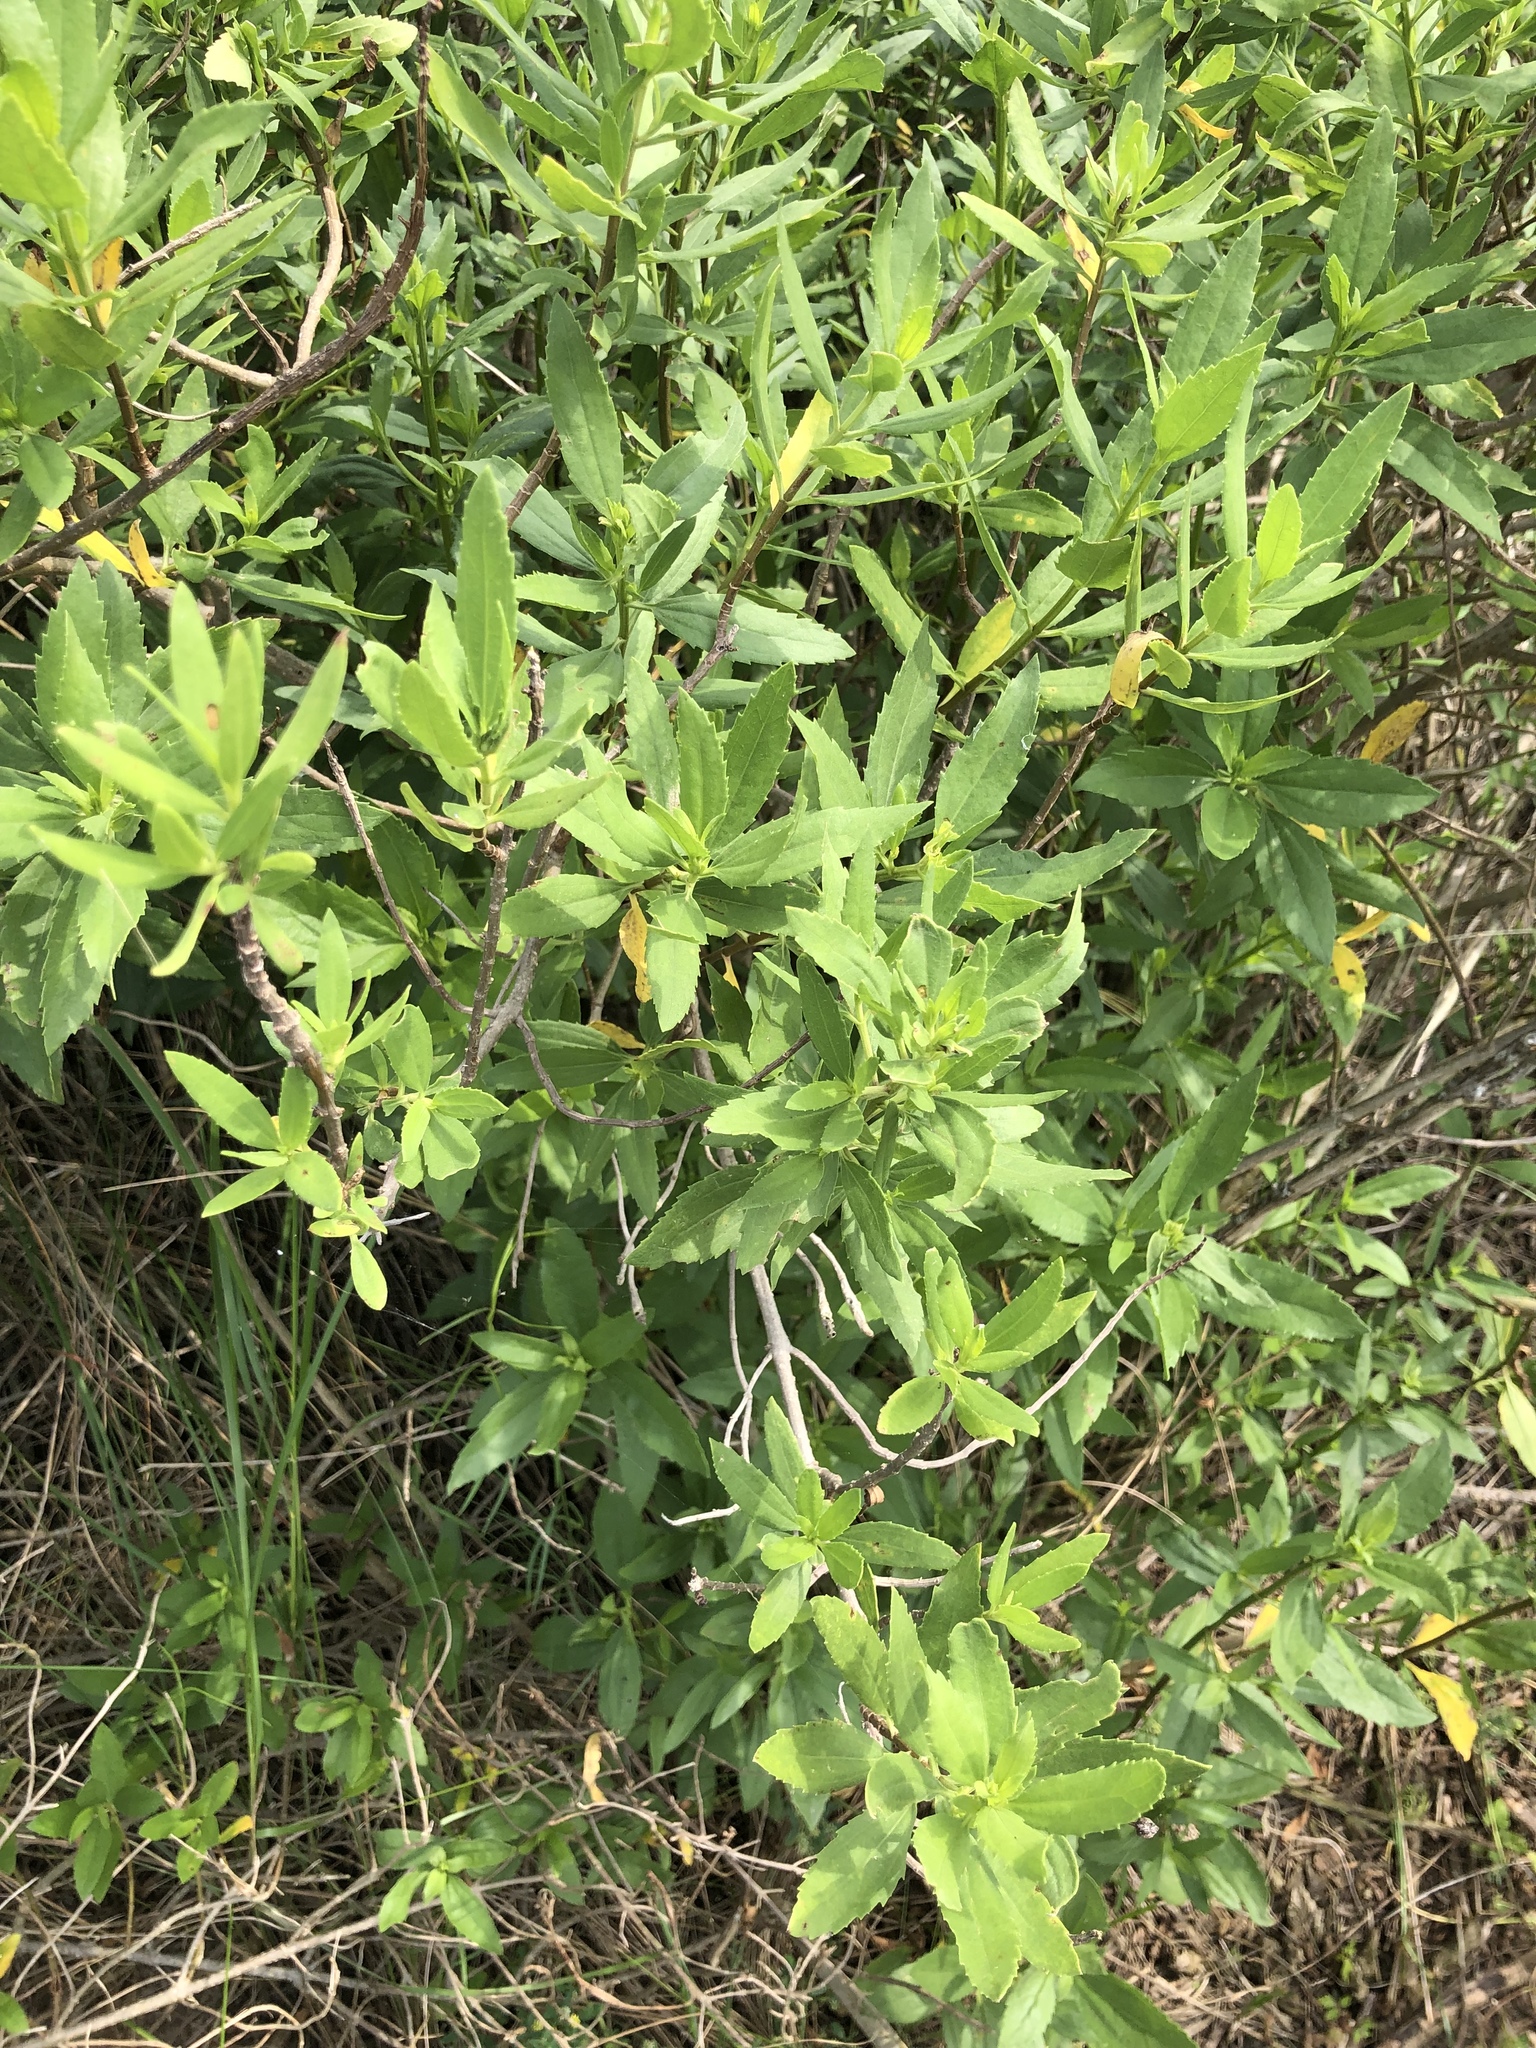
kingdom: Plantae
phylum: Tracheophyta
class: Magnoliopsida
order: Asterales
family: Asteraceae
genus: Iva
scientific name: Iva frutescens
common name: Big-leaved marsh-elder
